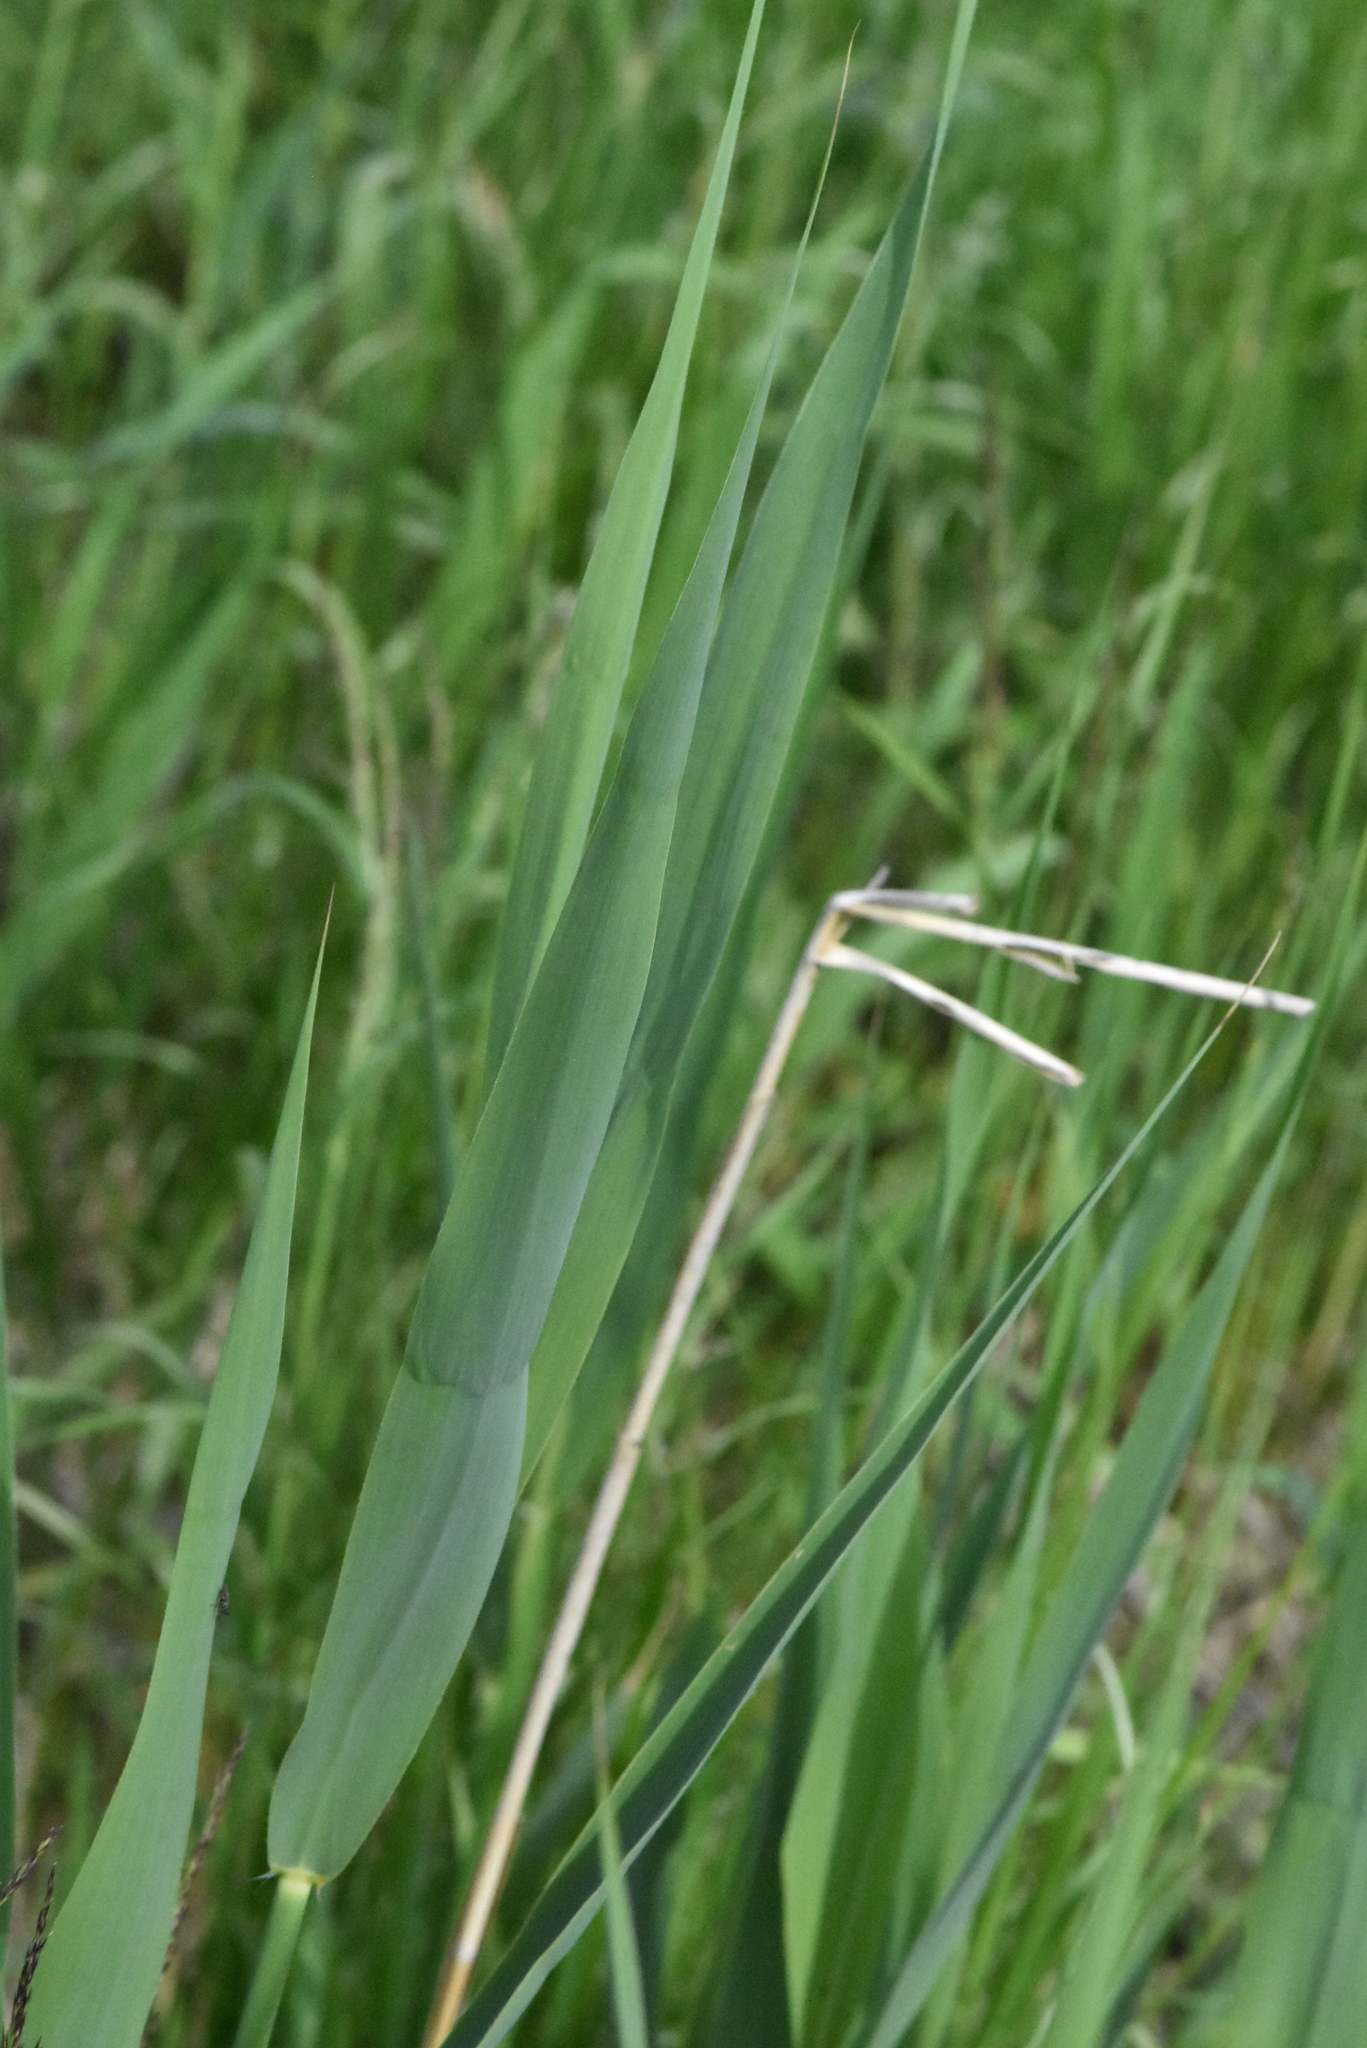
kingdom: Plantae
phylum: Tracheophyta
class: Liliopsida
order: Poales
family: Poaceae
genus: Phragmites
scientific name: Phragmites australis
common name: Common reed
